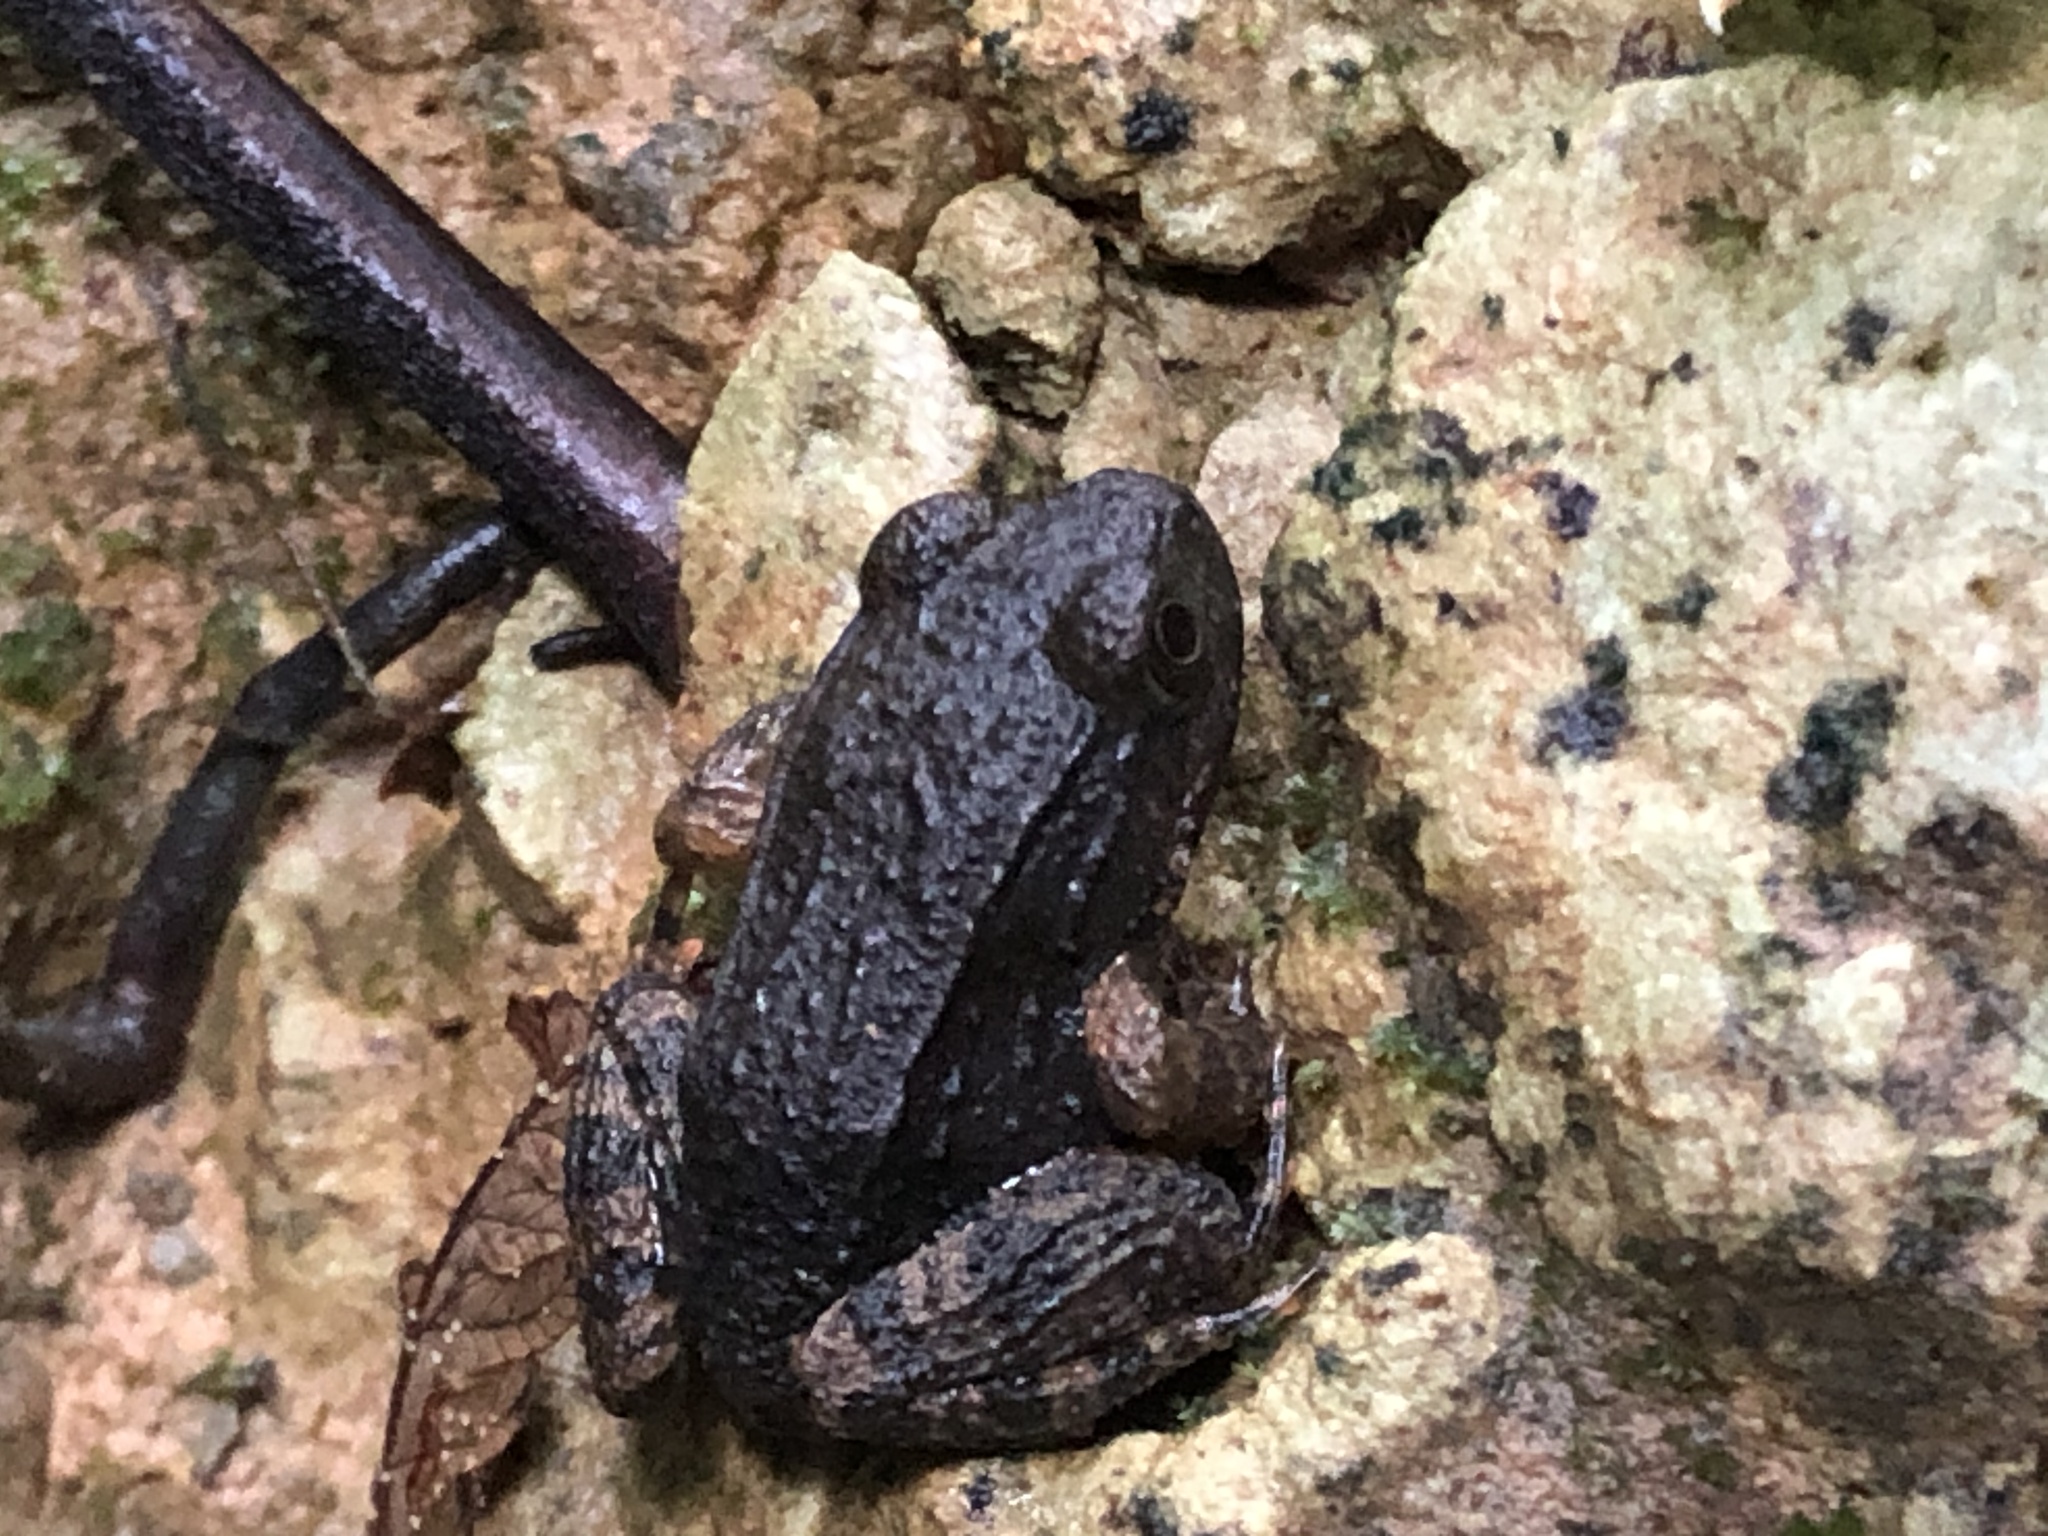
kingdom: Animalia
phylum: Chordata
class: Amphibia
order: Anura
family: Leptodactylidae
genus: Leptodactylus
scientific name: Leptodactylus rhodonotus
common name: Peru white-lipped frog
